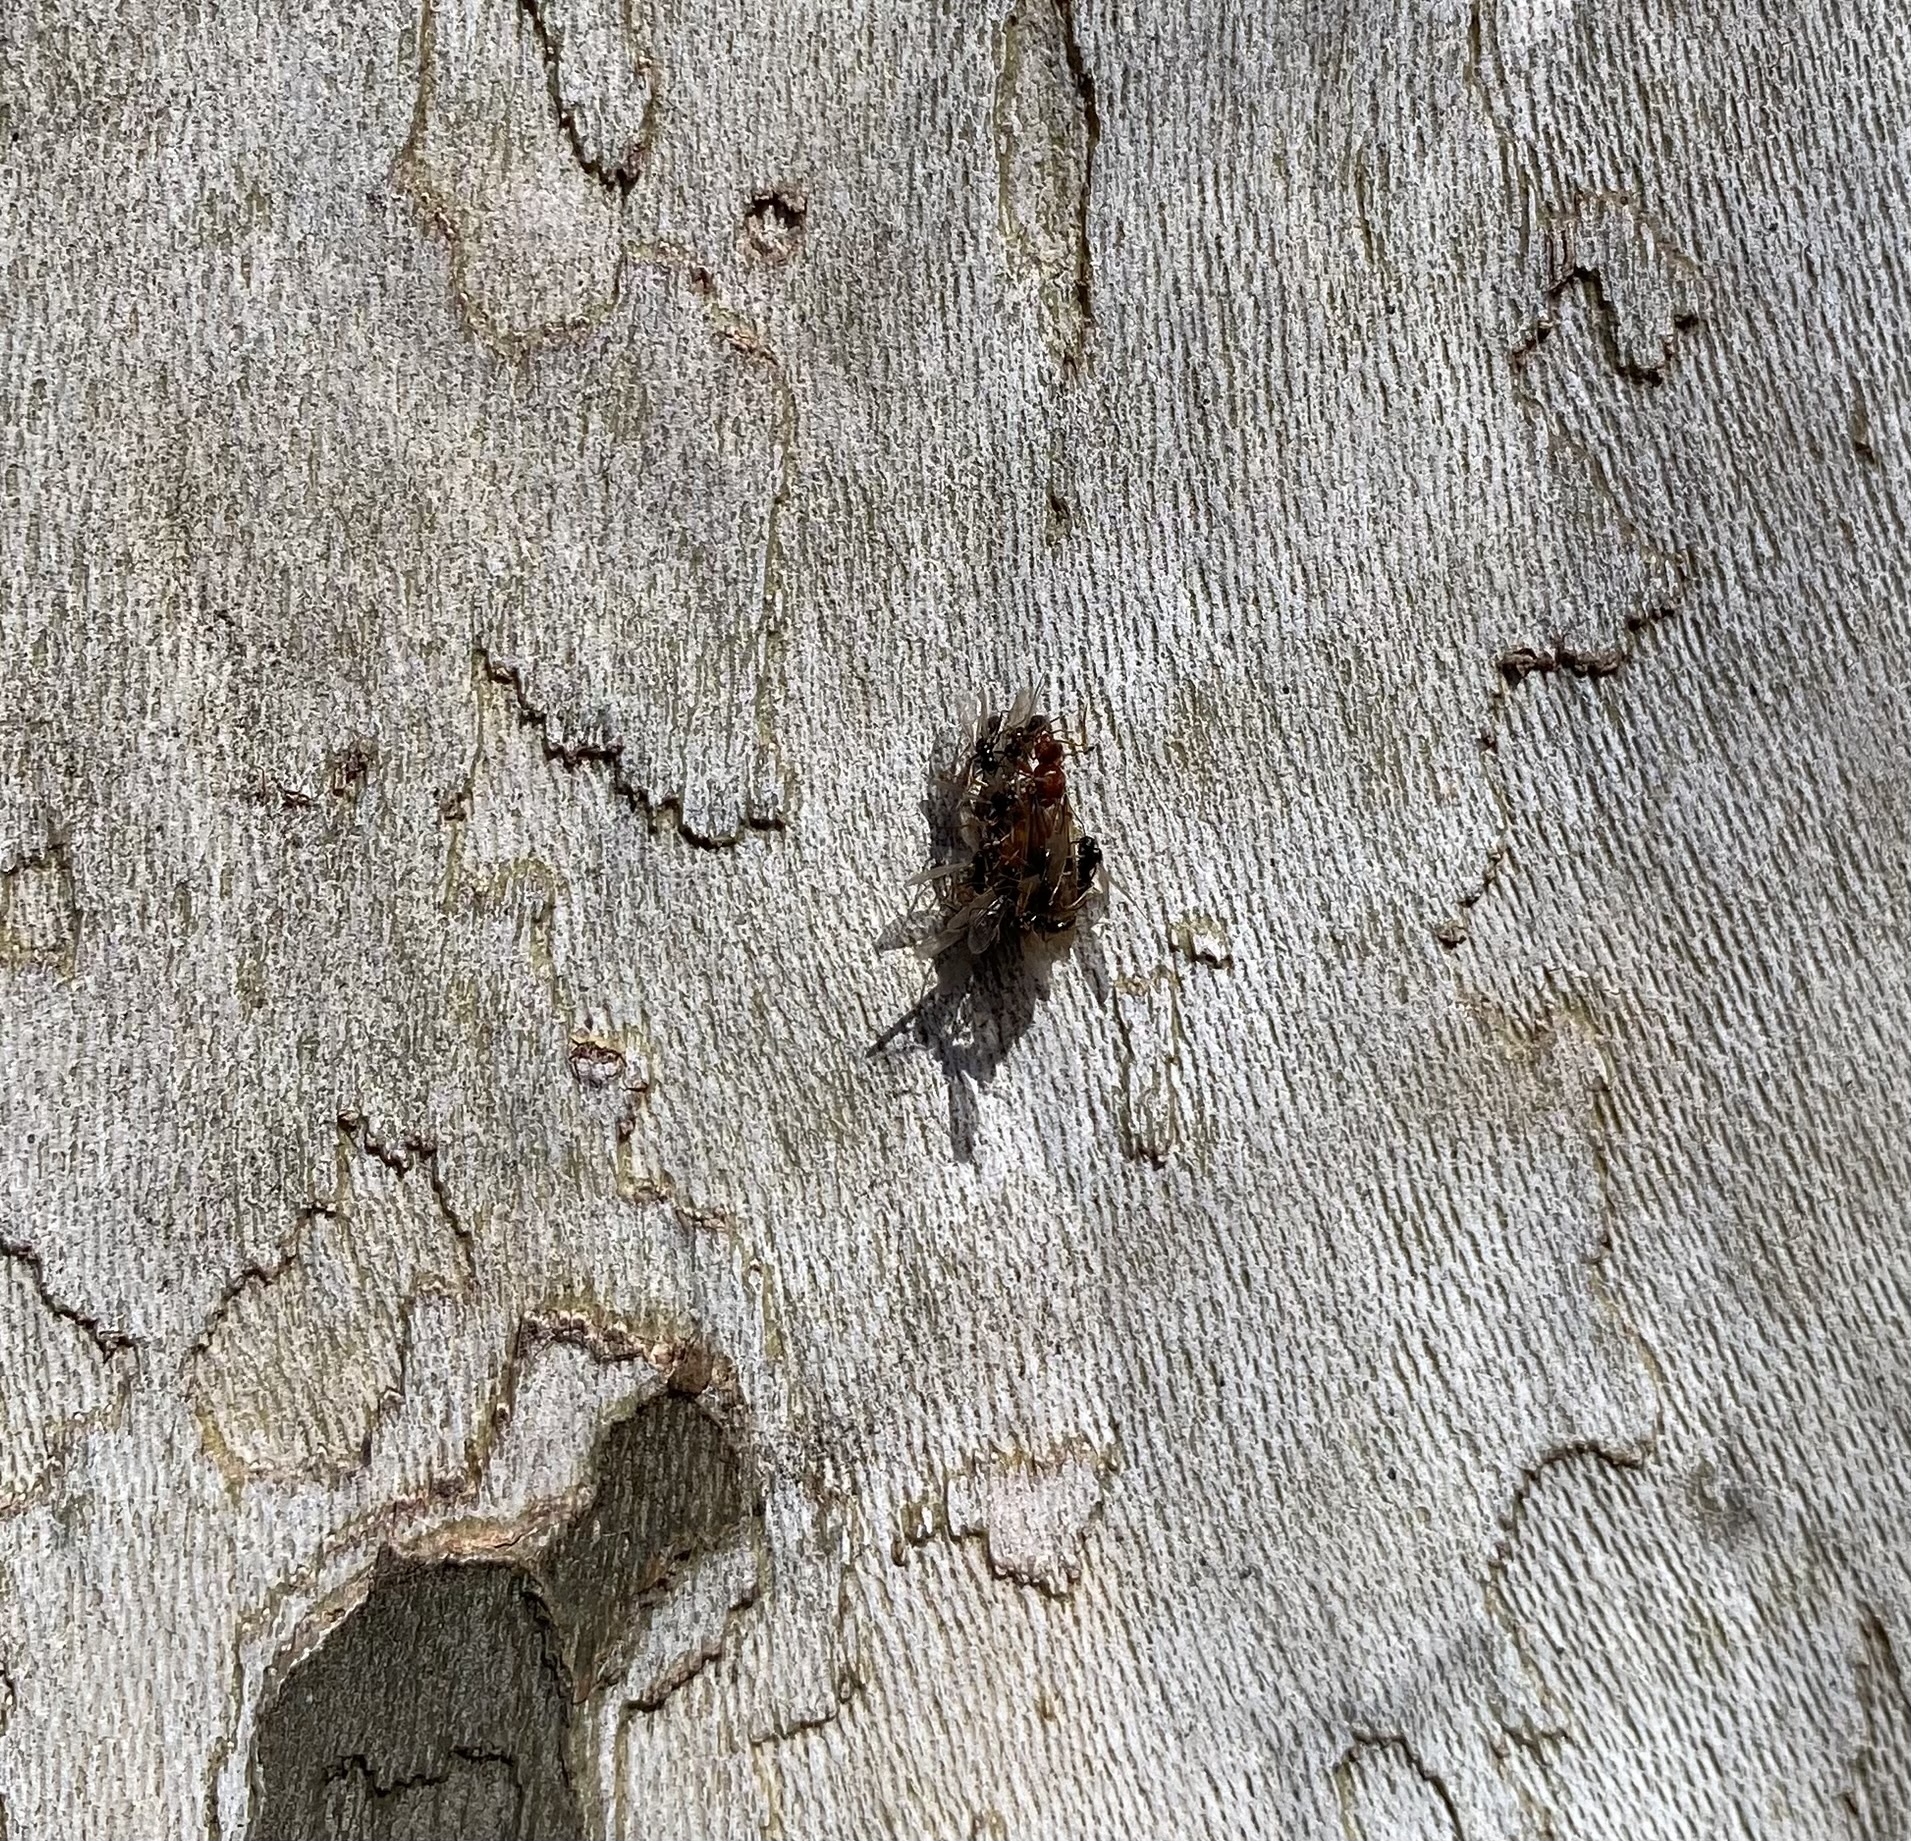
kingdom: Animalia
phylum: Arthropoda
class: Insecta
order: Hymenoptera
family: Formicidae
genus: Prenolepis
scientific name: Prenolepis imparis
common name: Small honey ant
